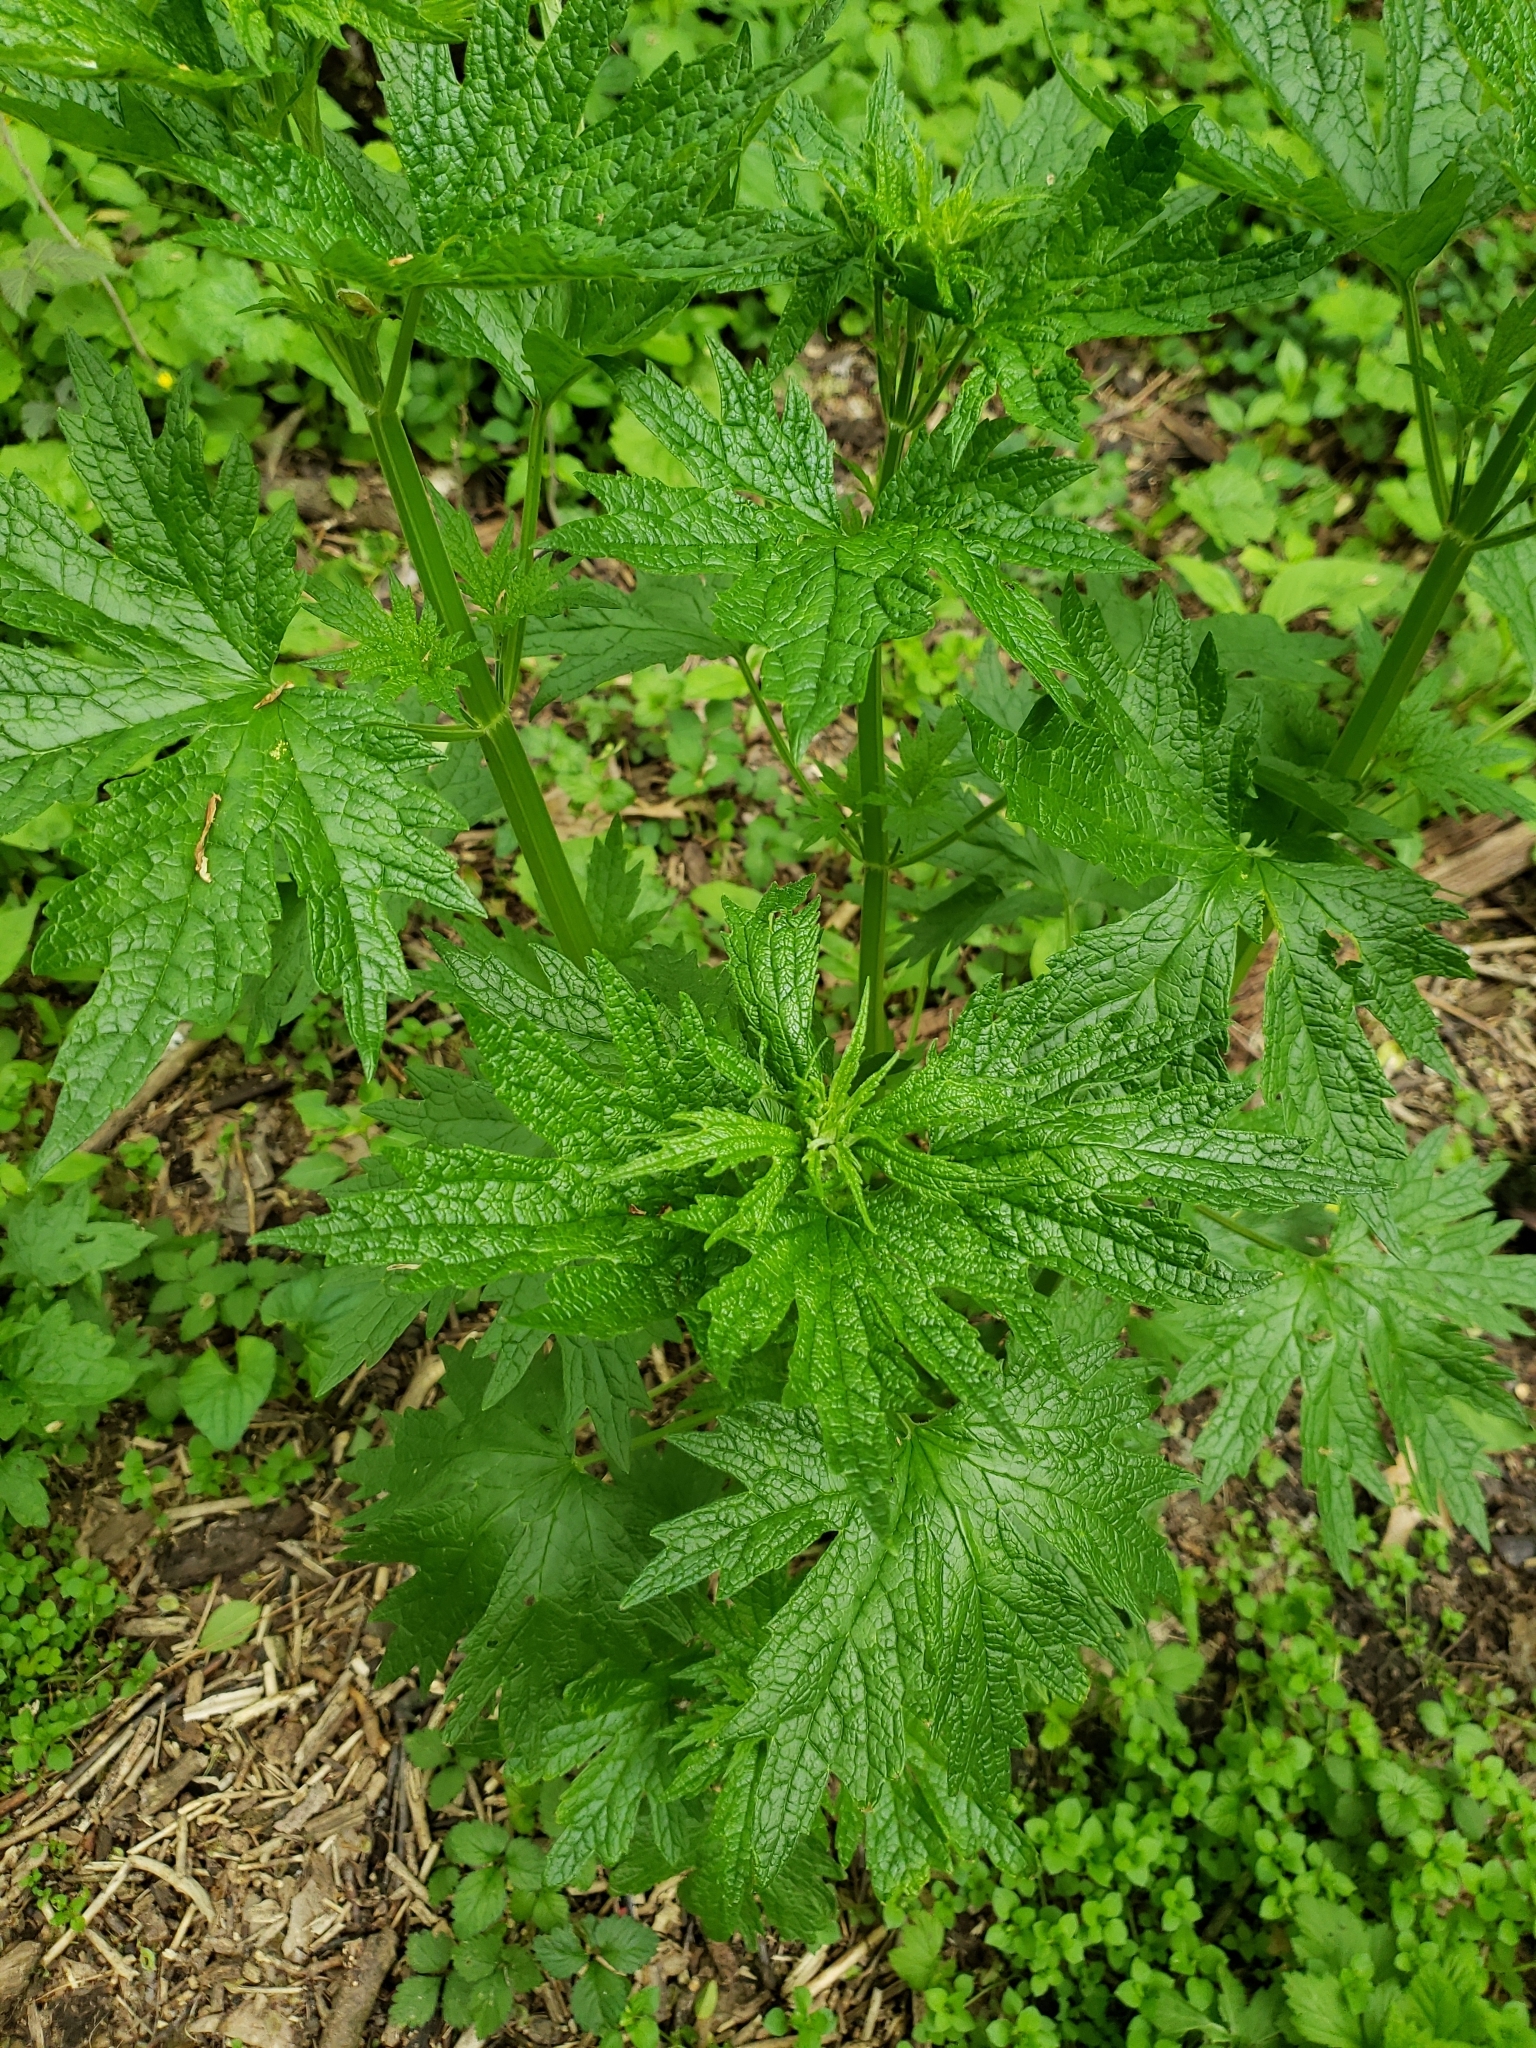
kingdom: Plantae
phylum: Tracheophyta
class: Magnoliopsida
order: Lamiales
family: Lamiaceae
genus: Leonurus
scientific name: Leonurus cardiaca
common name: Motherwort
